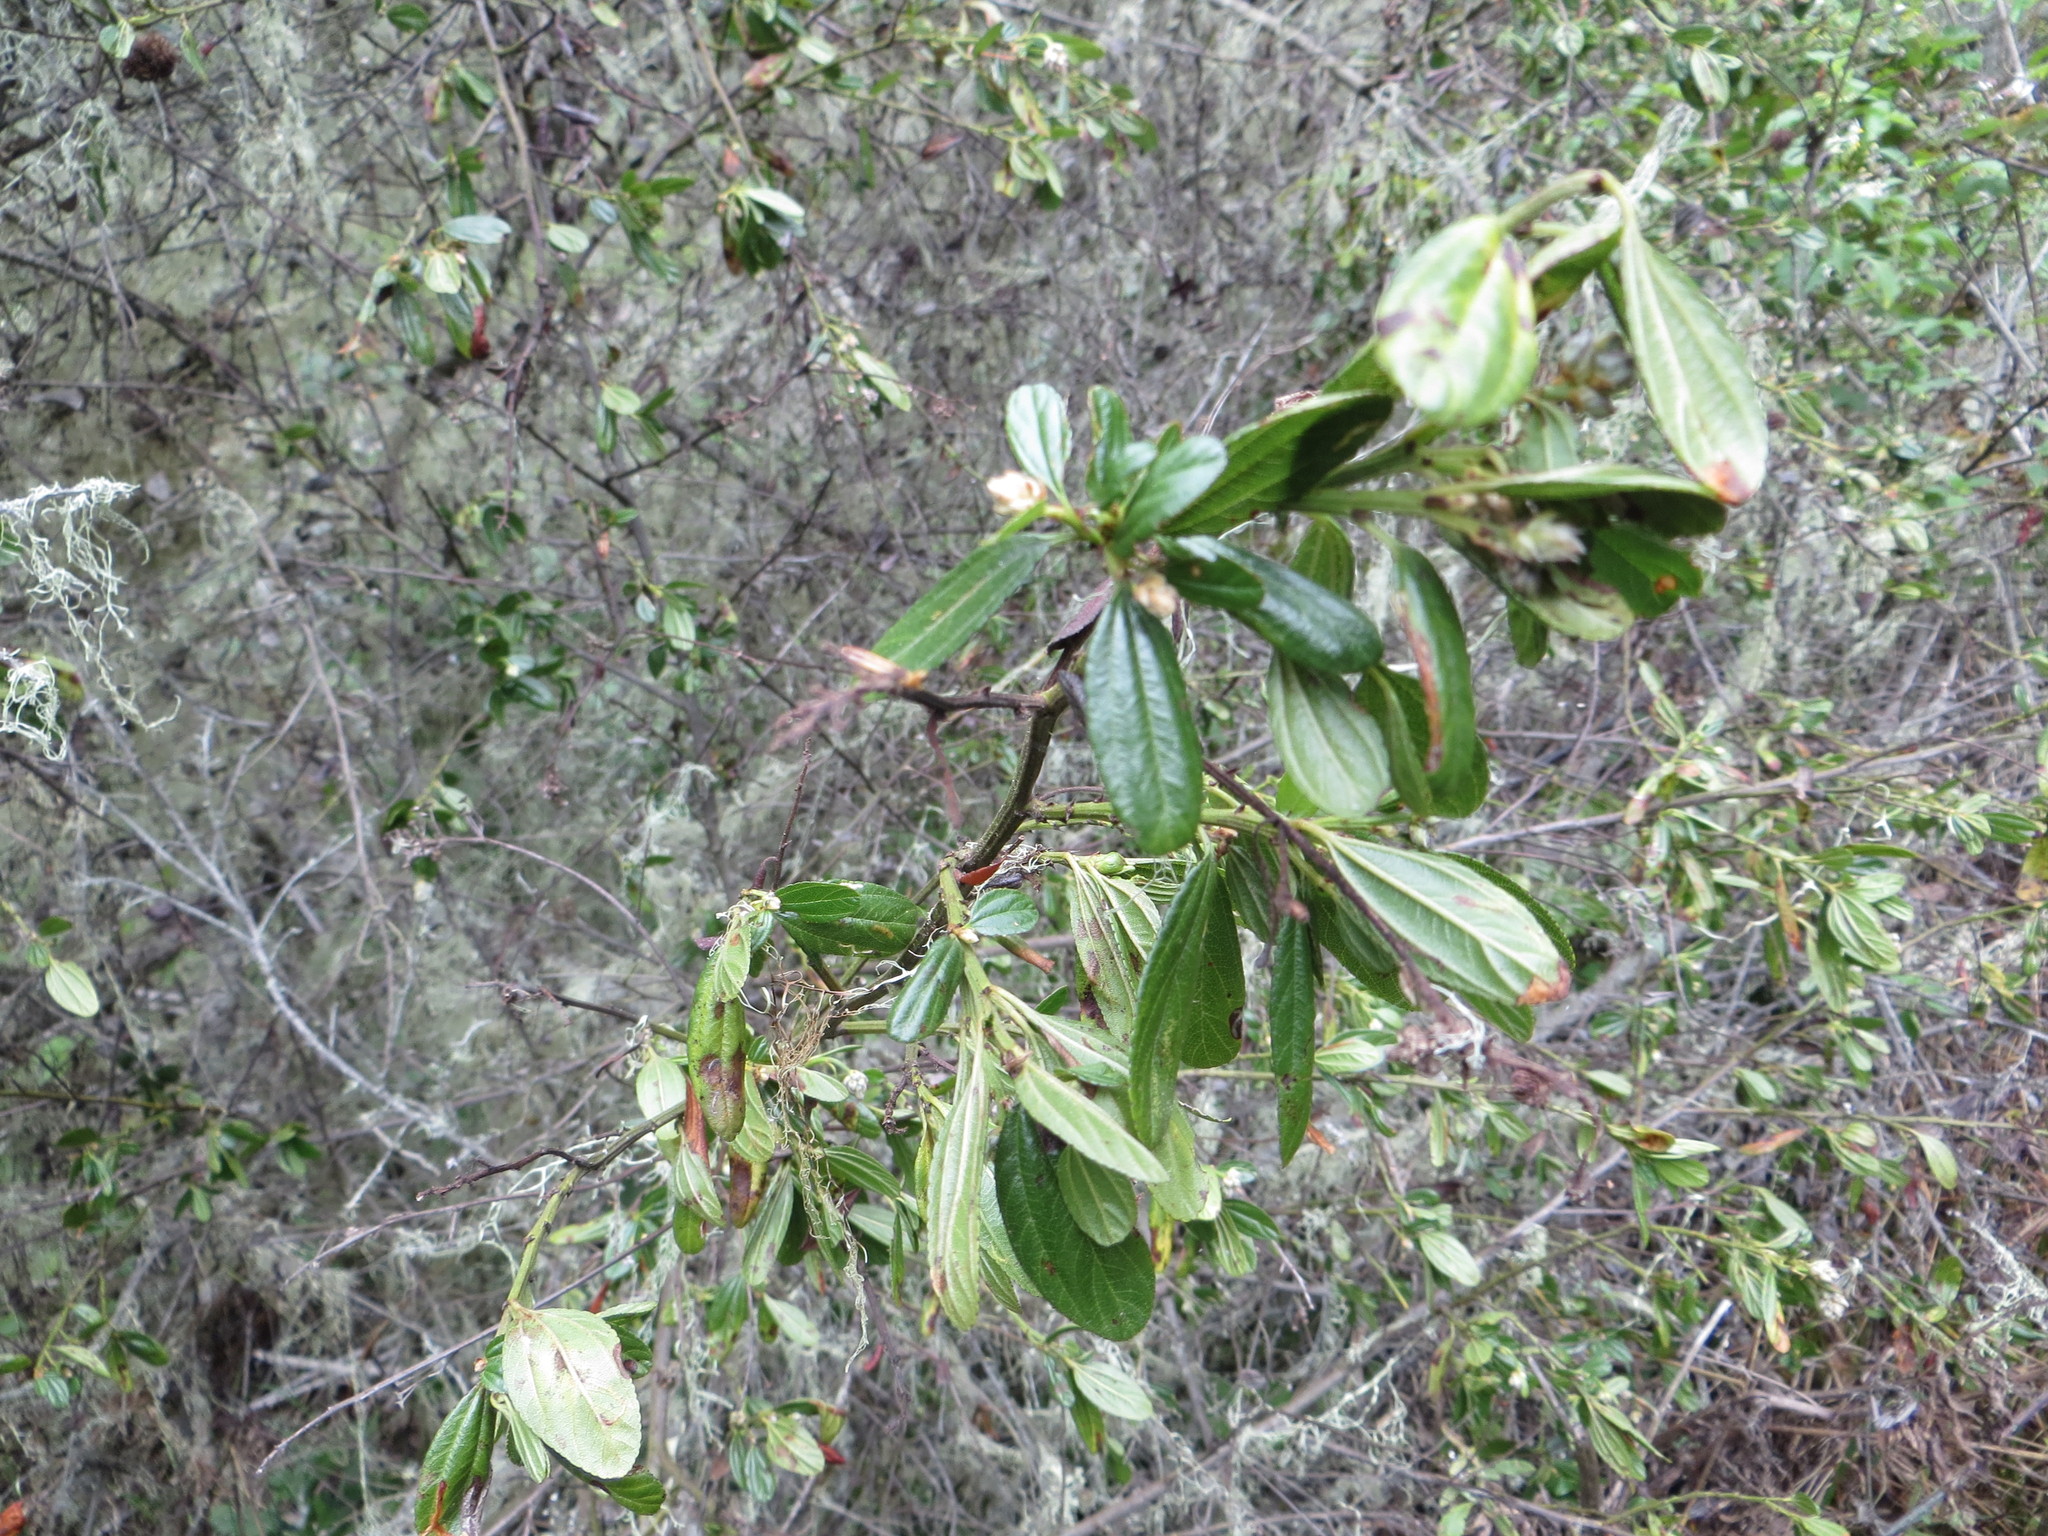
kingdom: Plantae
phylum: Tracheophyta
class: Magnoliopsida
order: Rosales
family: Rhamnaceae
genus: Ceanothus
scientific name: Ceanothus thyrsiflorus
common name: California-lilac
